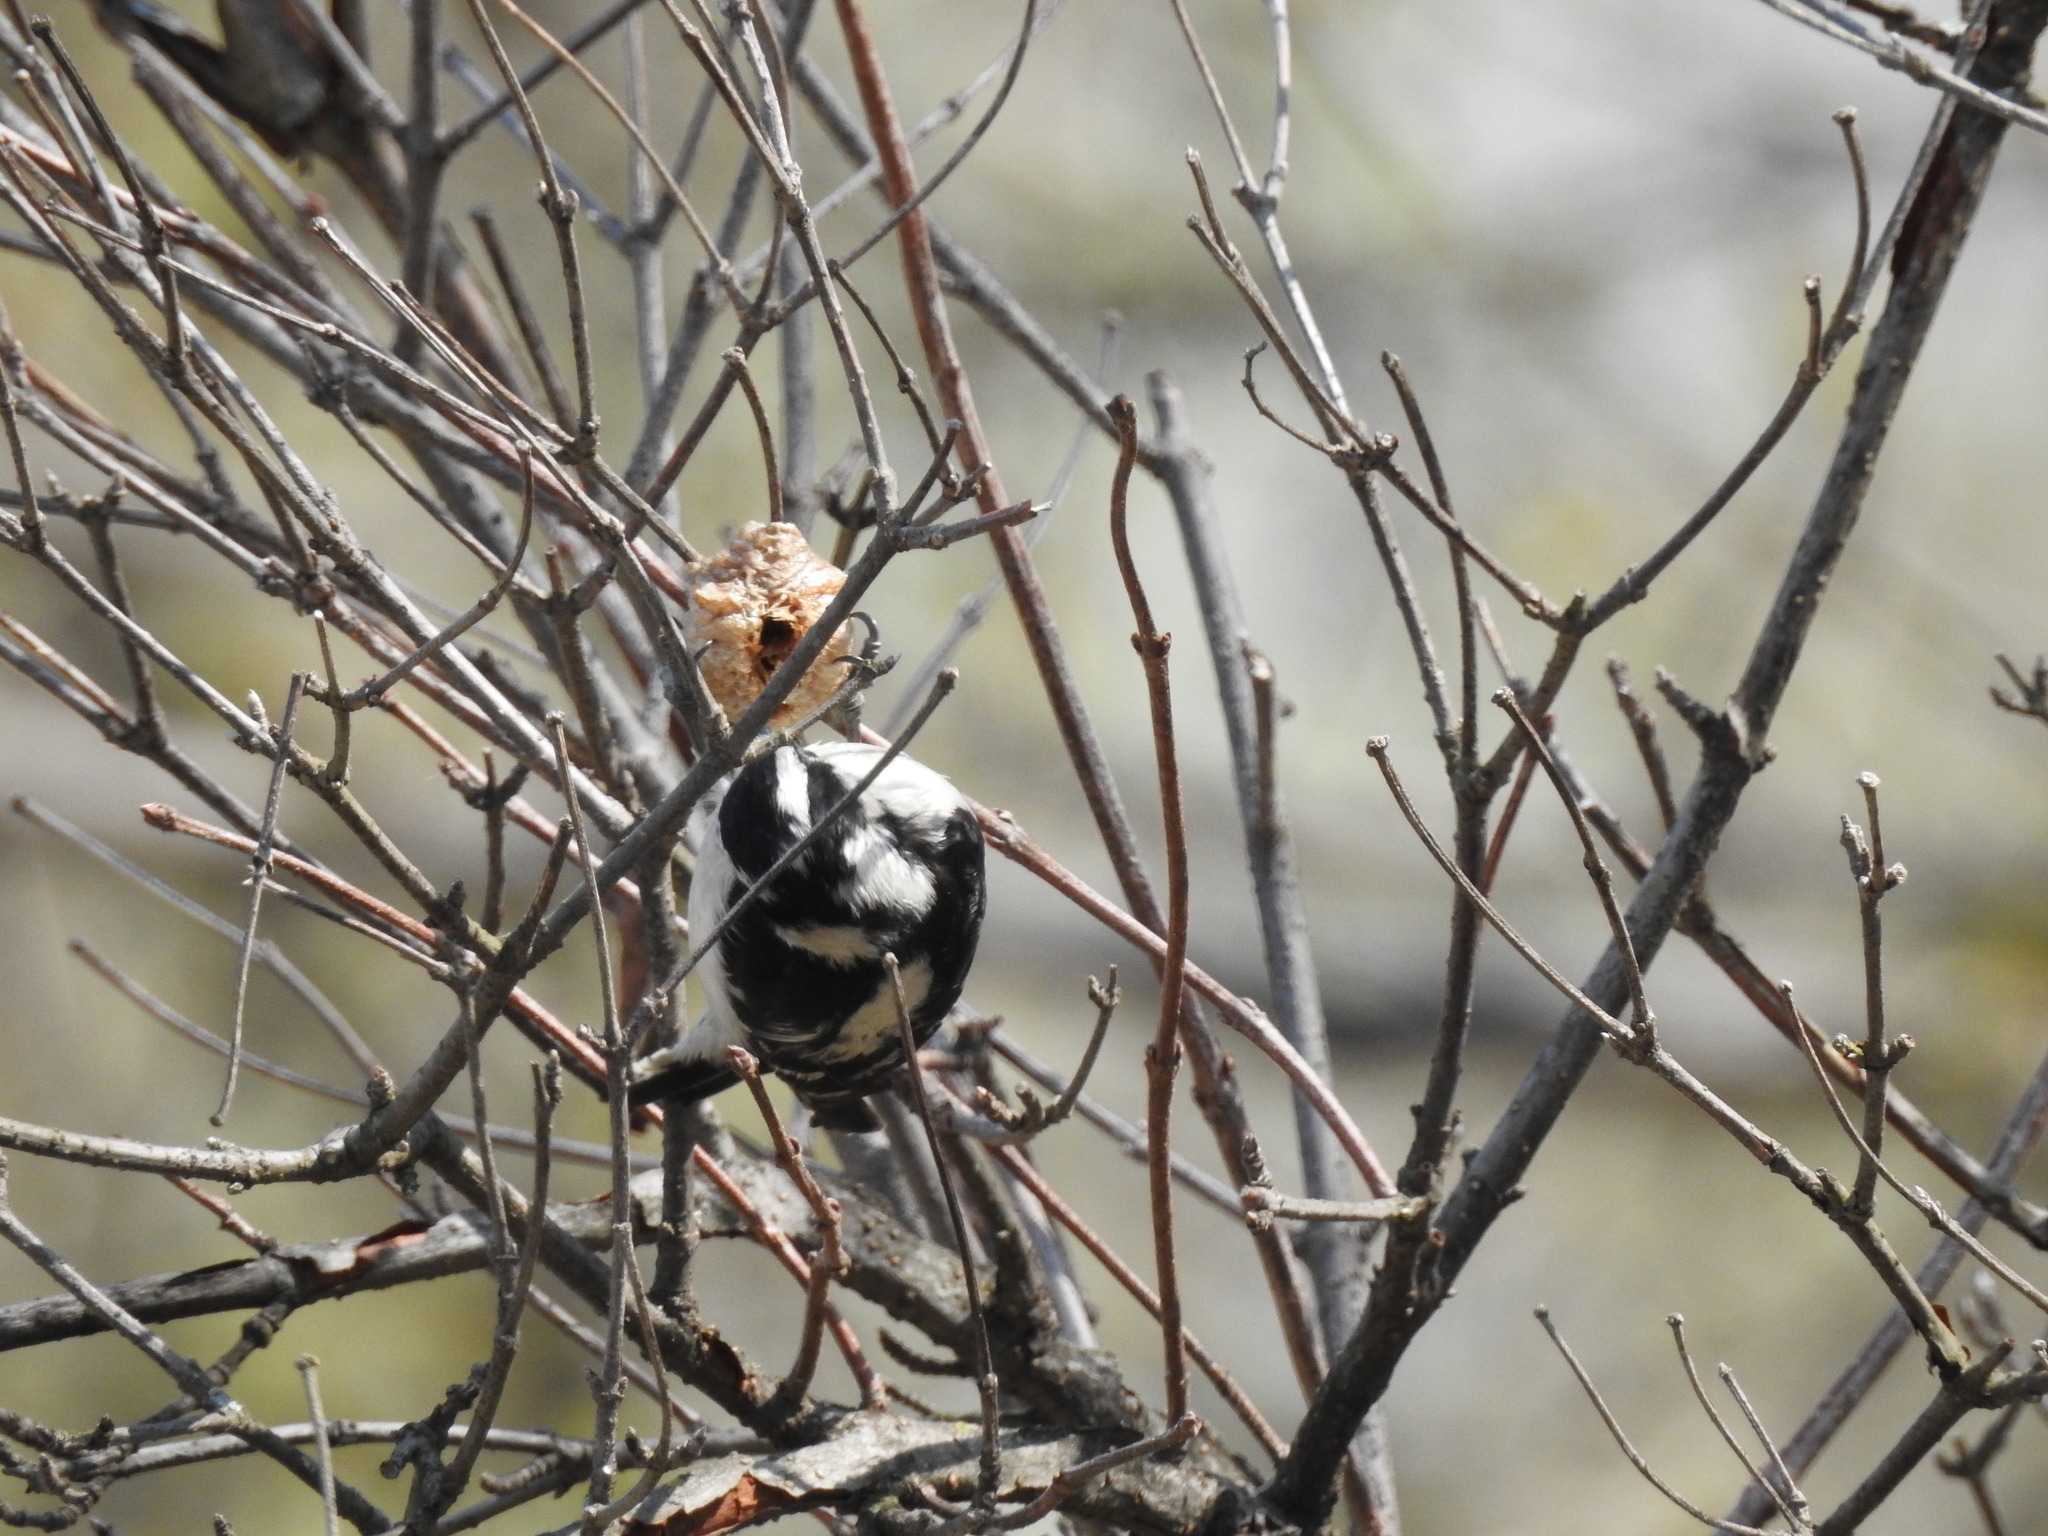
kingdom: Animalia
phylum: Chordata
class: Aves
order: Piciformes
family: Picidae
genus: Dryobates
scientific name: Dryobates pubescens
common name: Downy woodpecker
